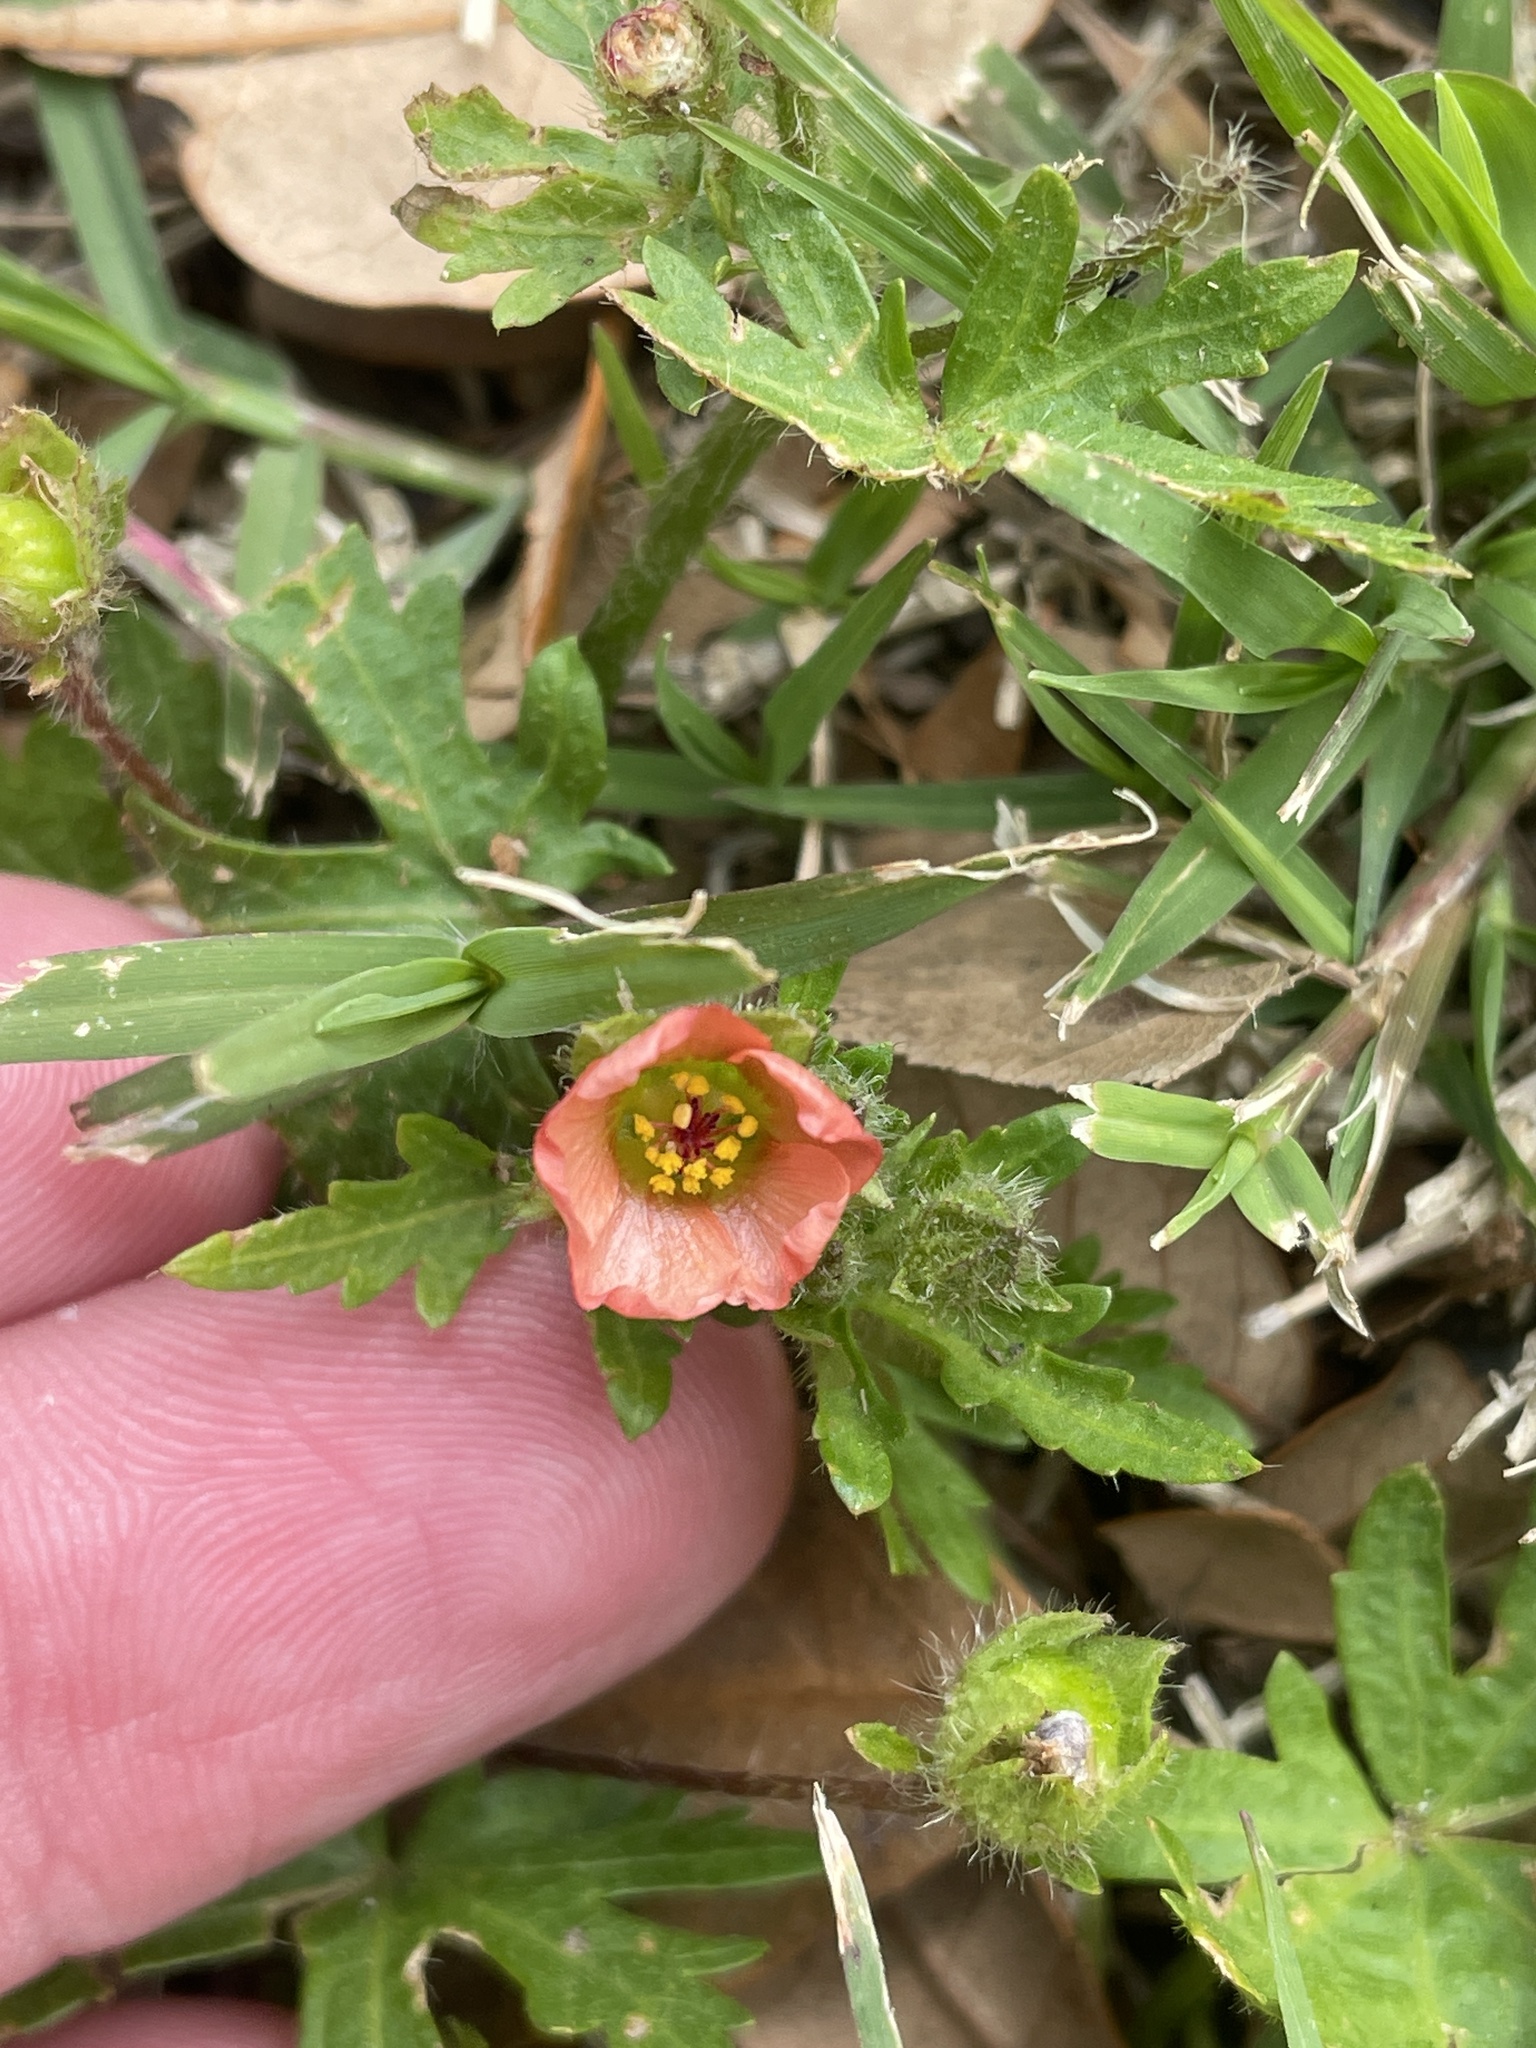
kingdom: Plantae
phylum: Tracheophyta
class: Magnoliopsida
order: Malvales
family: Malvaceae
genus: Modiola
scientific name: Modiola caroliniana
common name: Carolina bristlemallow
